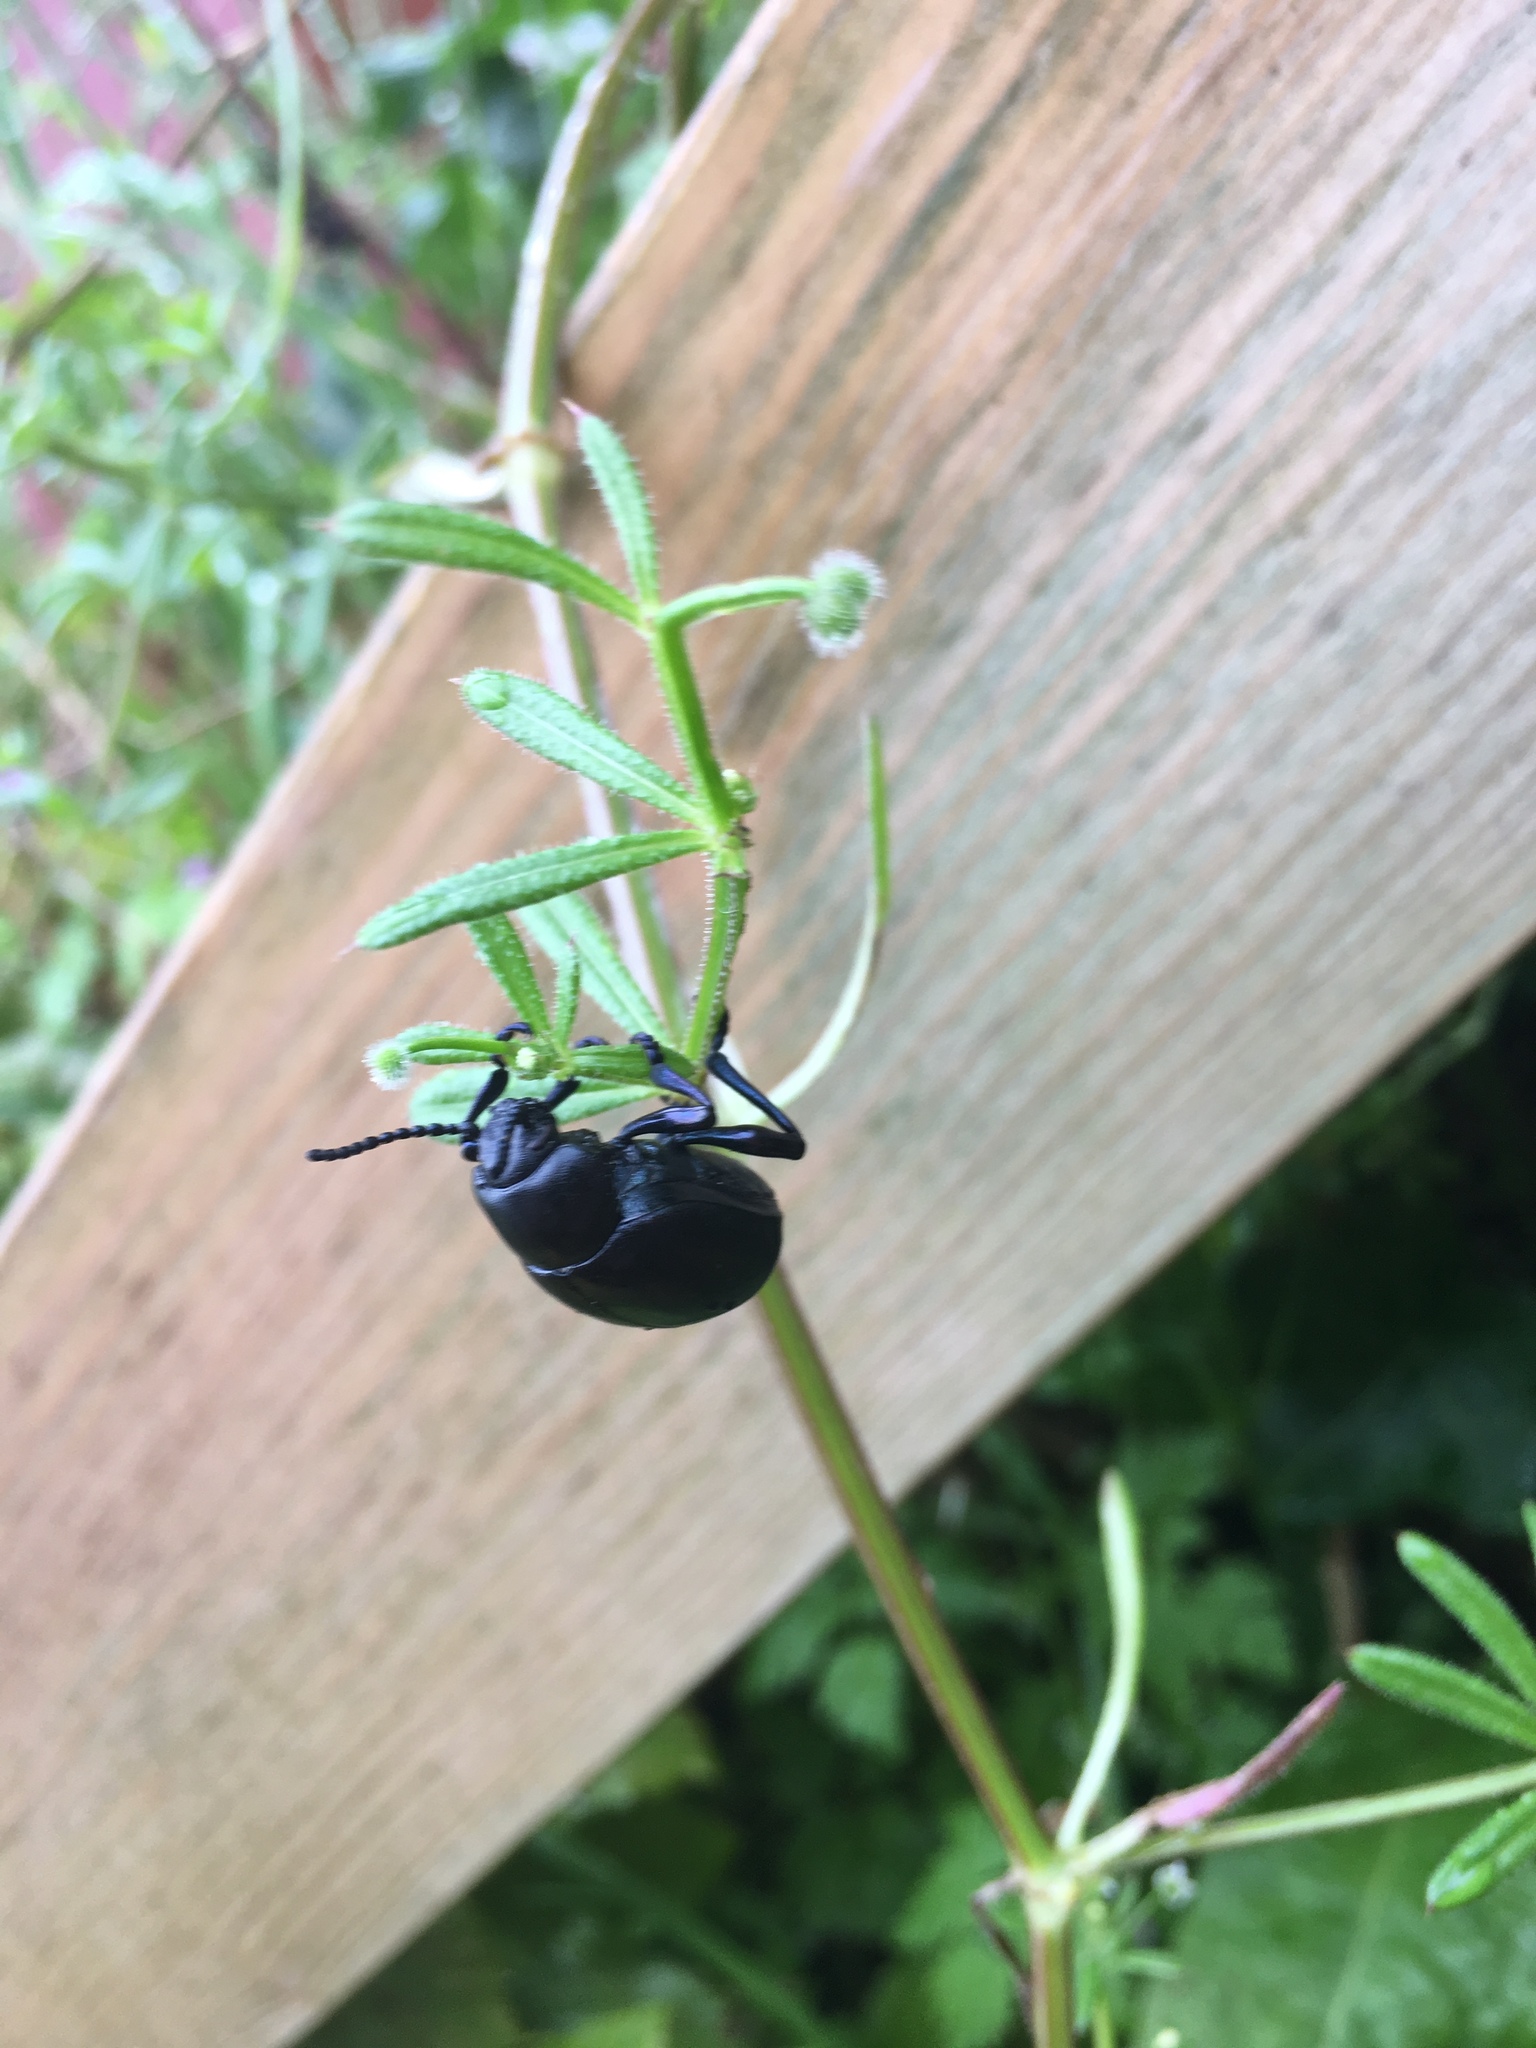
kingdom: Animalia
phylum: Arthropoda
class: Insecta
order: Coleoptera
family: Chrysomelidae
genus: Timarcha
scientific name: Timarcha tenebricosa
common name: Bloody-nosed beetle
